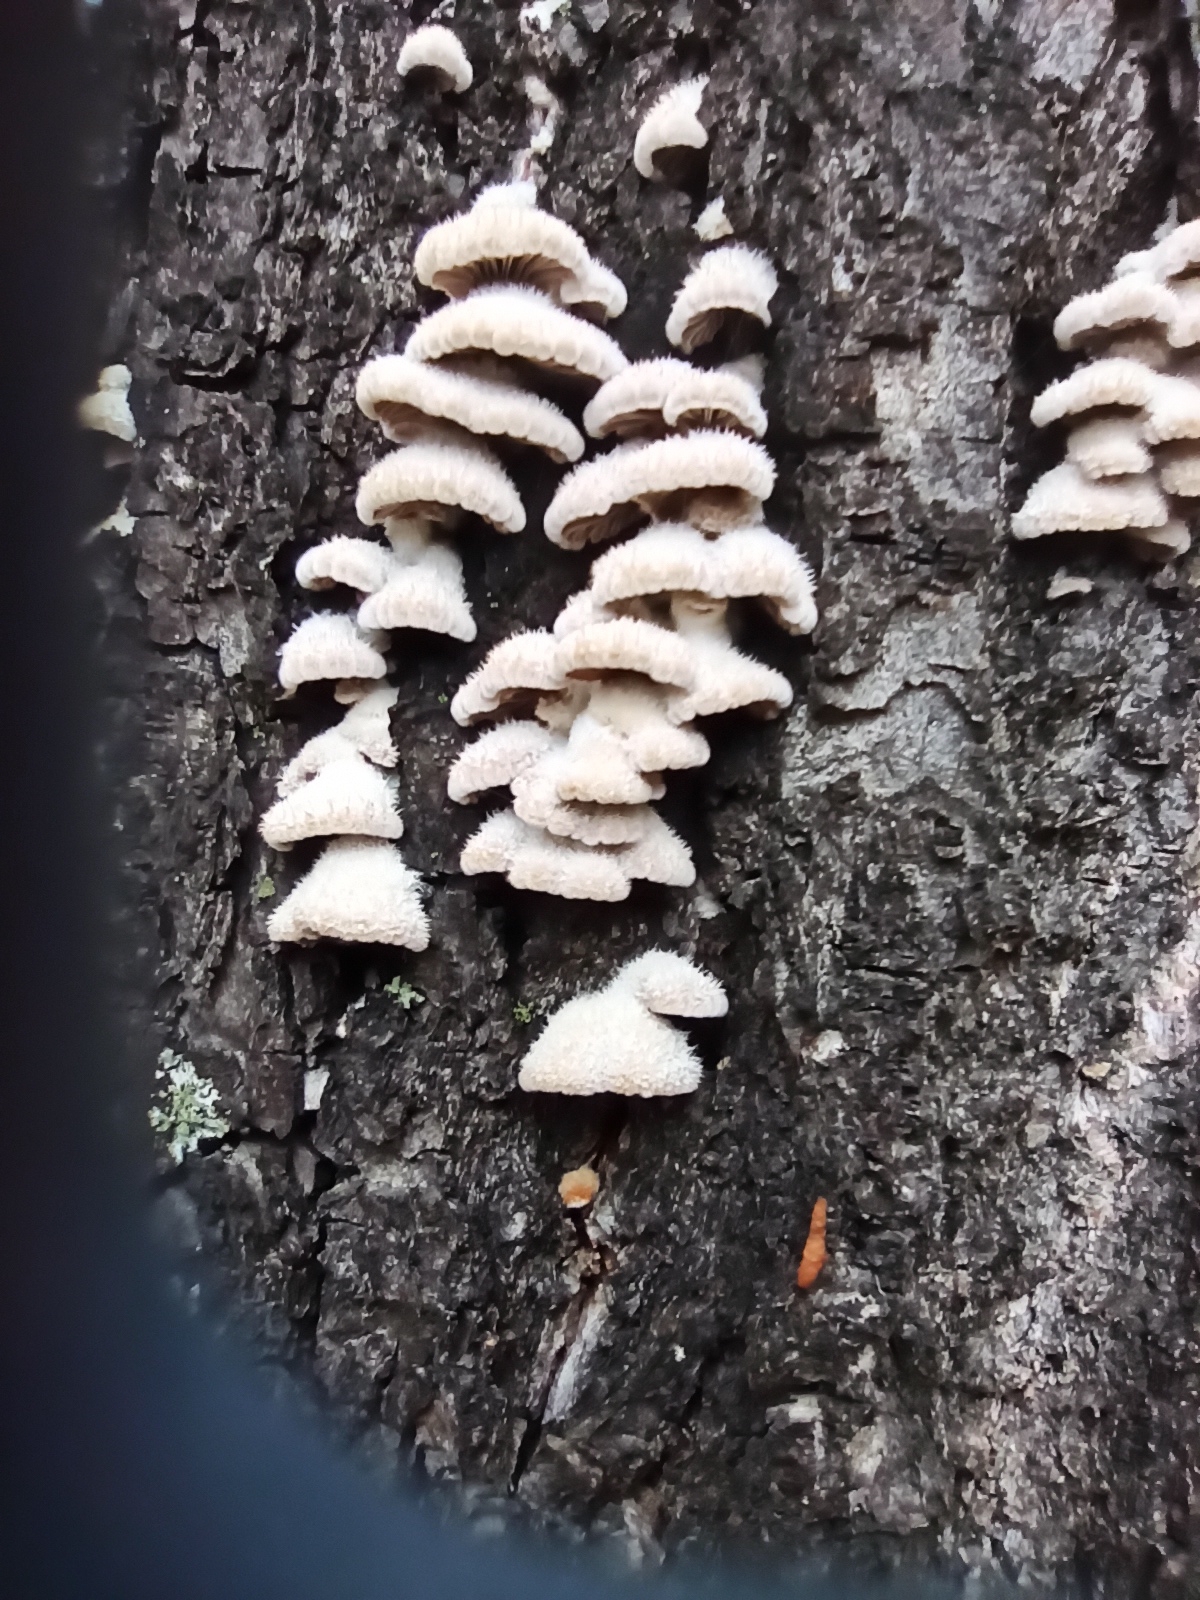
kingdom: Fungi
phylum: Basidiomycota
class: Agaricomycetes
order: Agaricales
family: Schizophyllaceae
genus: Schizophyllum
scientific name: Schizophyllum commune
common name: Common porecrust
